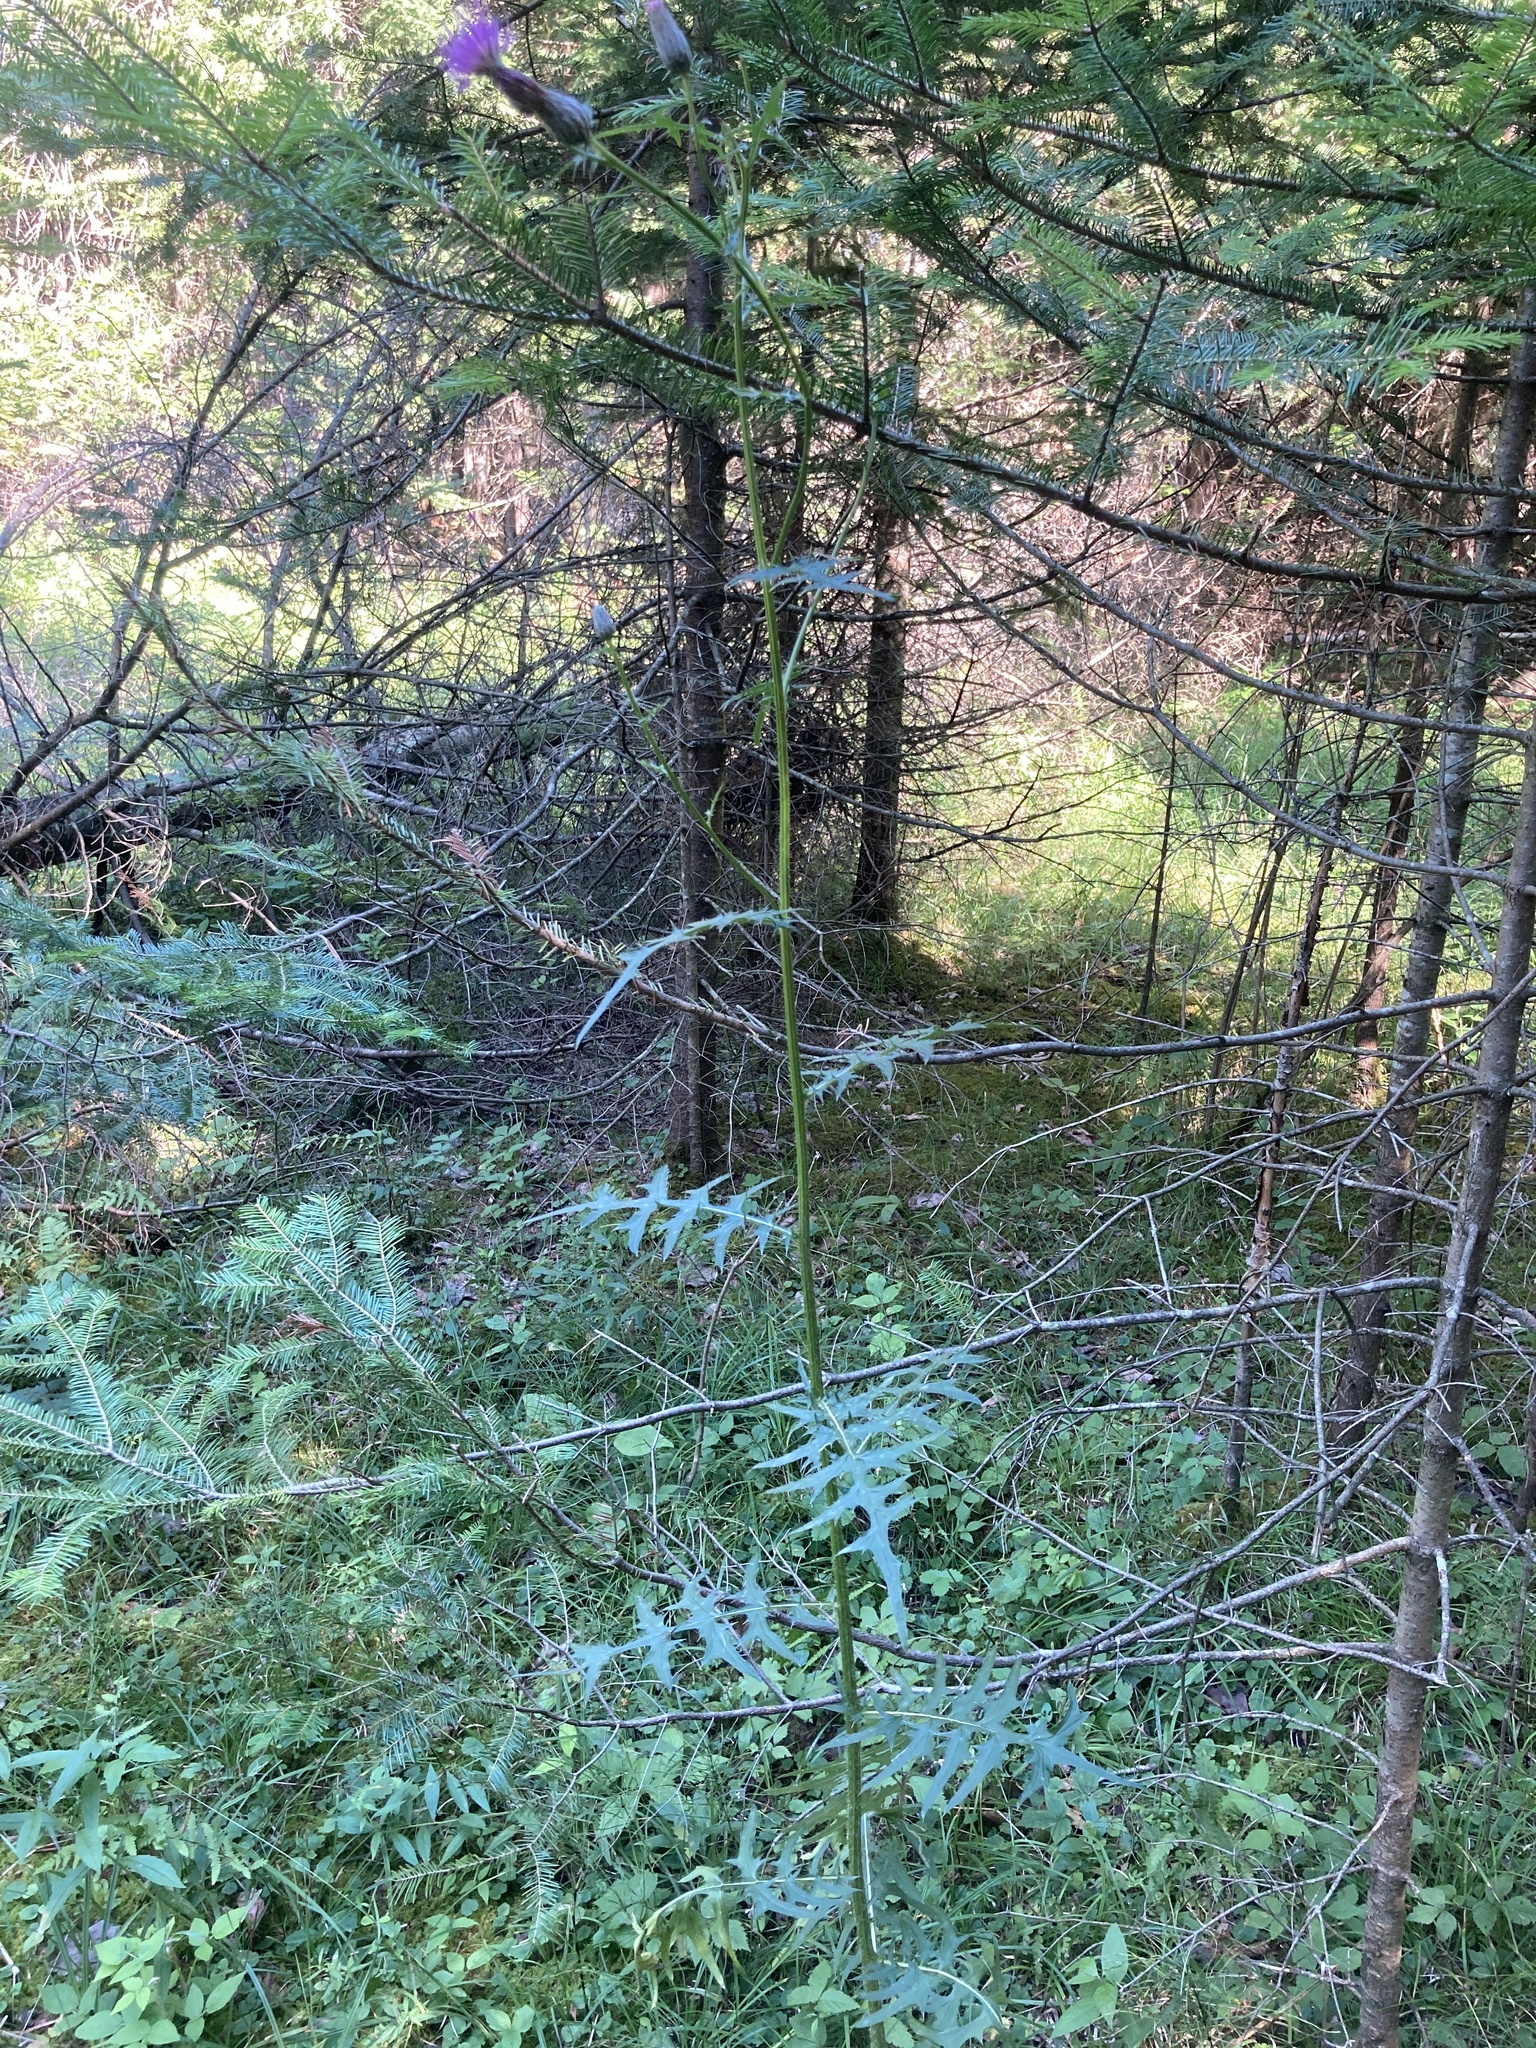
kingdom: Plantae
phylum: Tracheophyta
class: Magnoliopsida
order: Asterales
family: Asteraceae
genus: Cirsium
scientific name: Cirsium muticum
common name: Dunce-nettle
